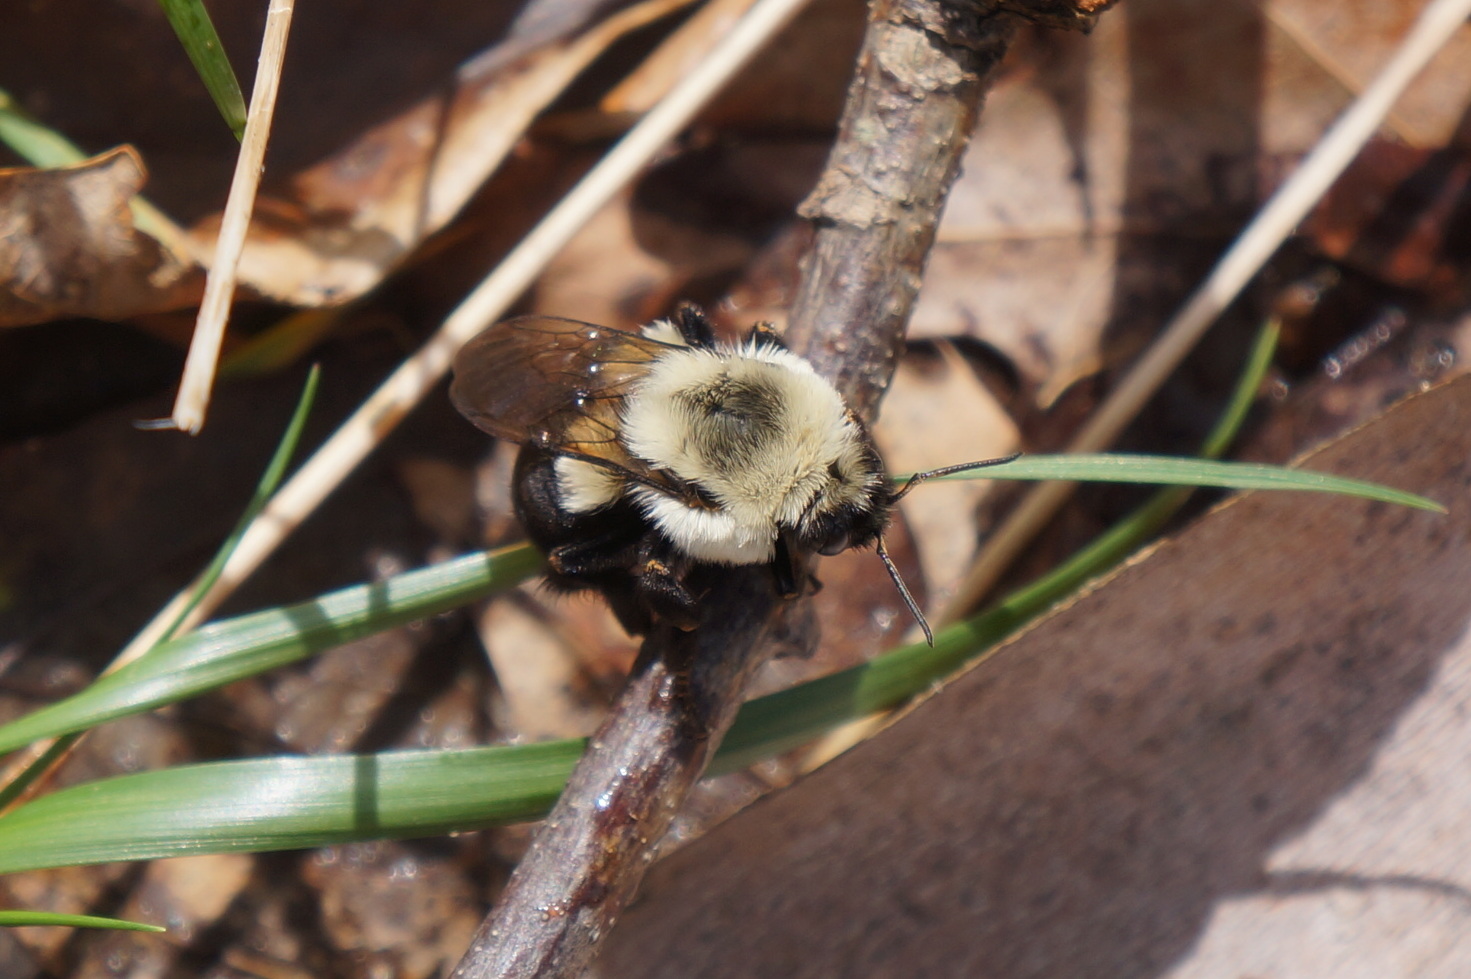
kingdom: Animalia
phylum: Arthropoda
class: Insecta
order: Hymenoptera
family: Apidae
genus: Bombus
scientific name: Bombus impatiens
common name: Common eastern bumble bee
